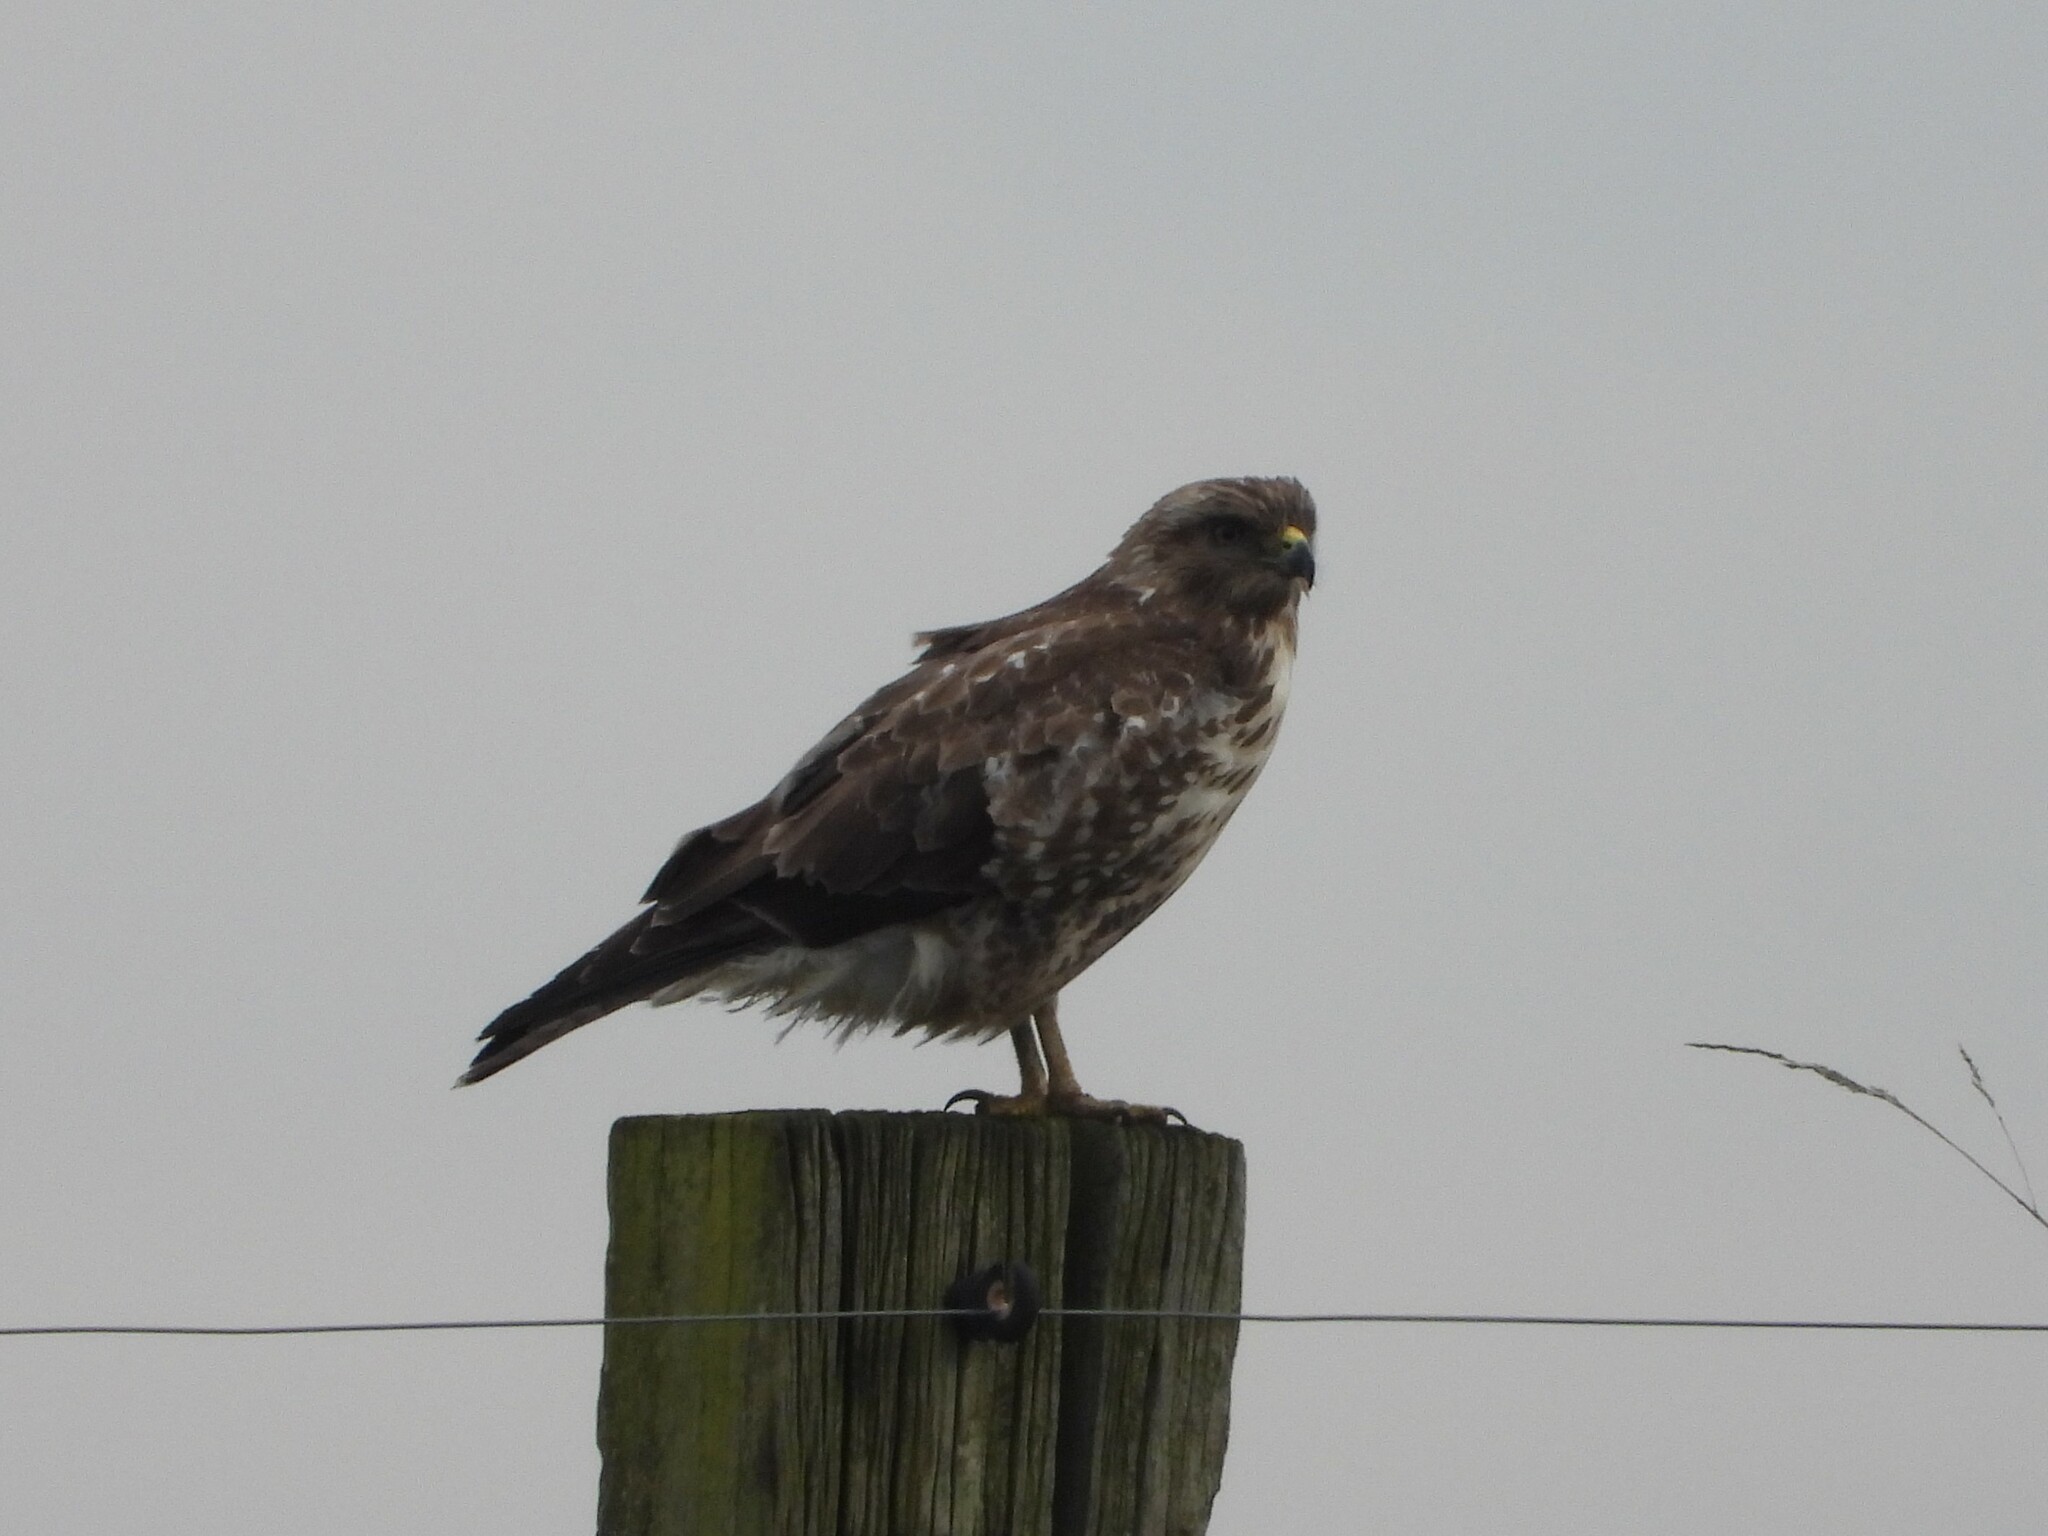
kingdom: Animalia
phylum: Chordata
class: Aves
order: Accipitriformes
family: Accipitridae
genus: Buteo
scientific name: Buteo buteo
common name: Common buzzard
